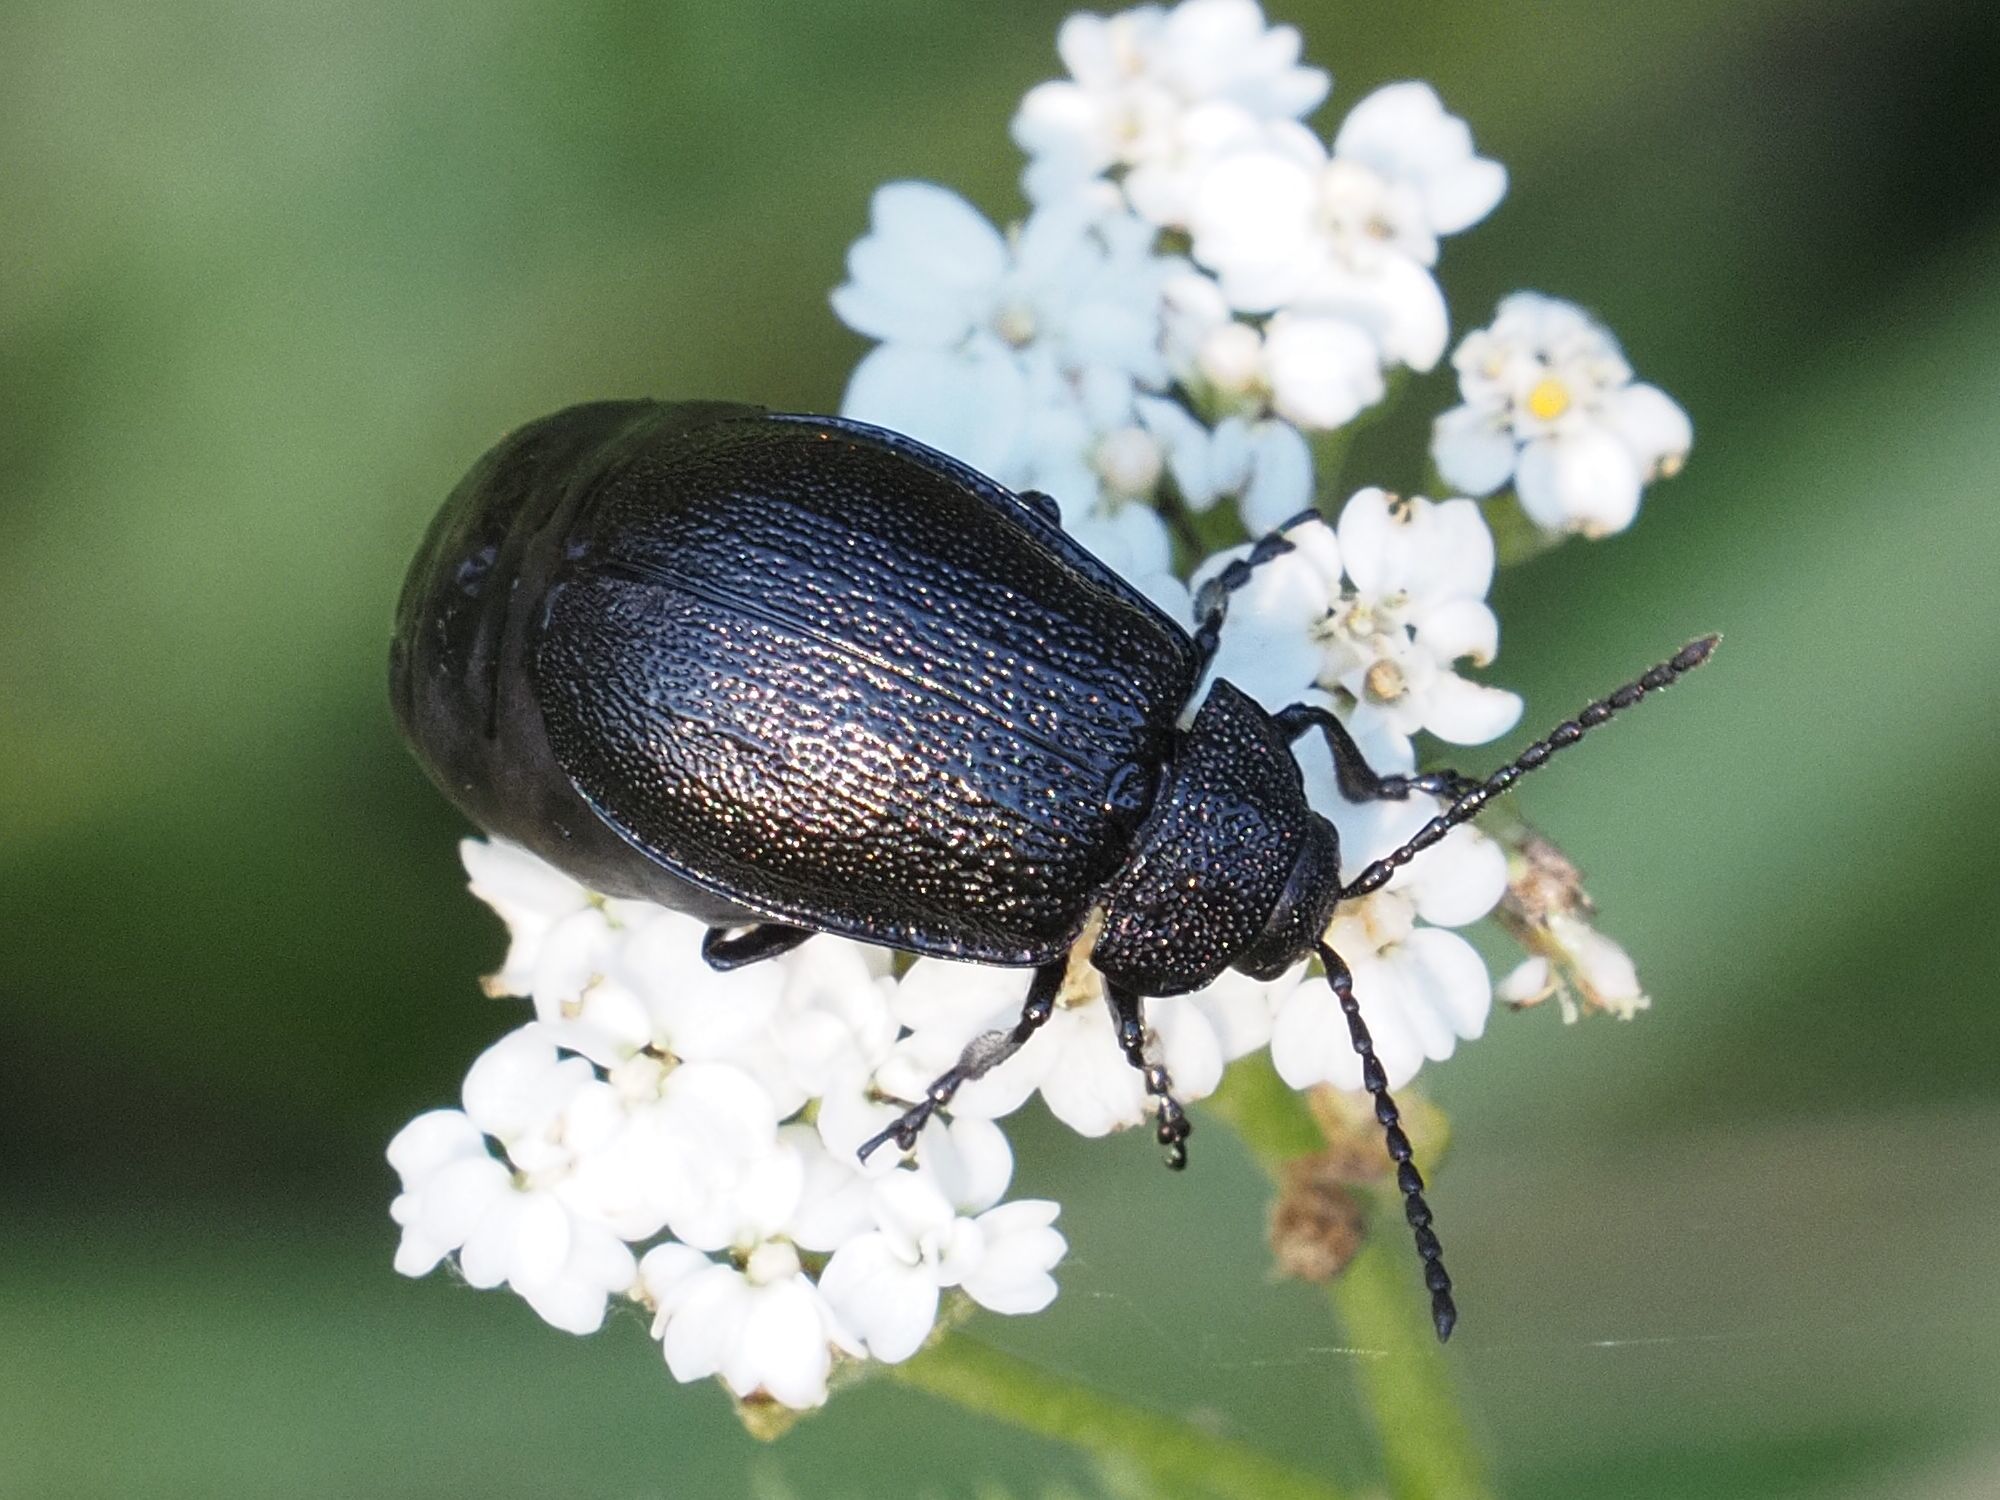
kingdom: Animalia
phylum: Arthropoda
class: Insecta
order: Coleoptera
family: Chrysomelidae
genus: Galeruca
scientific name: Galeruca tanaceti
